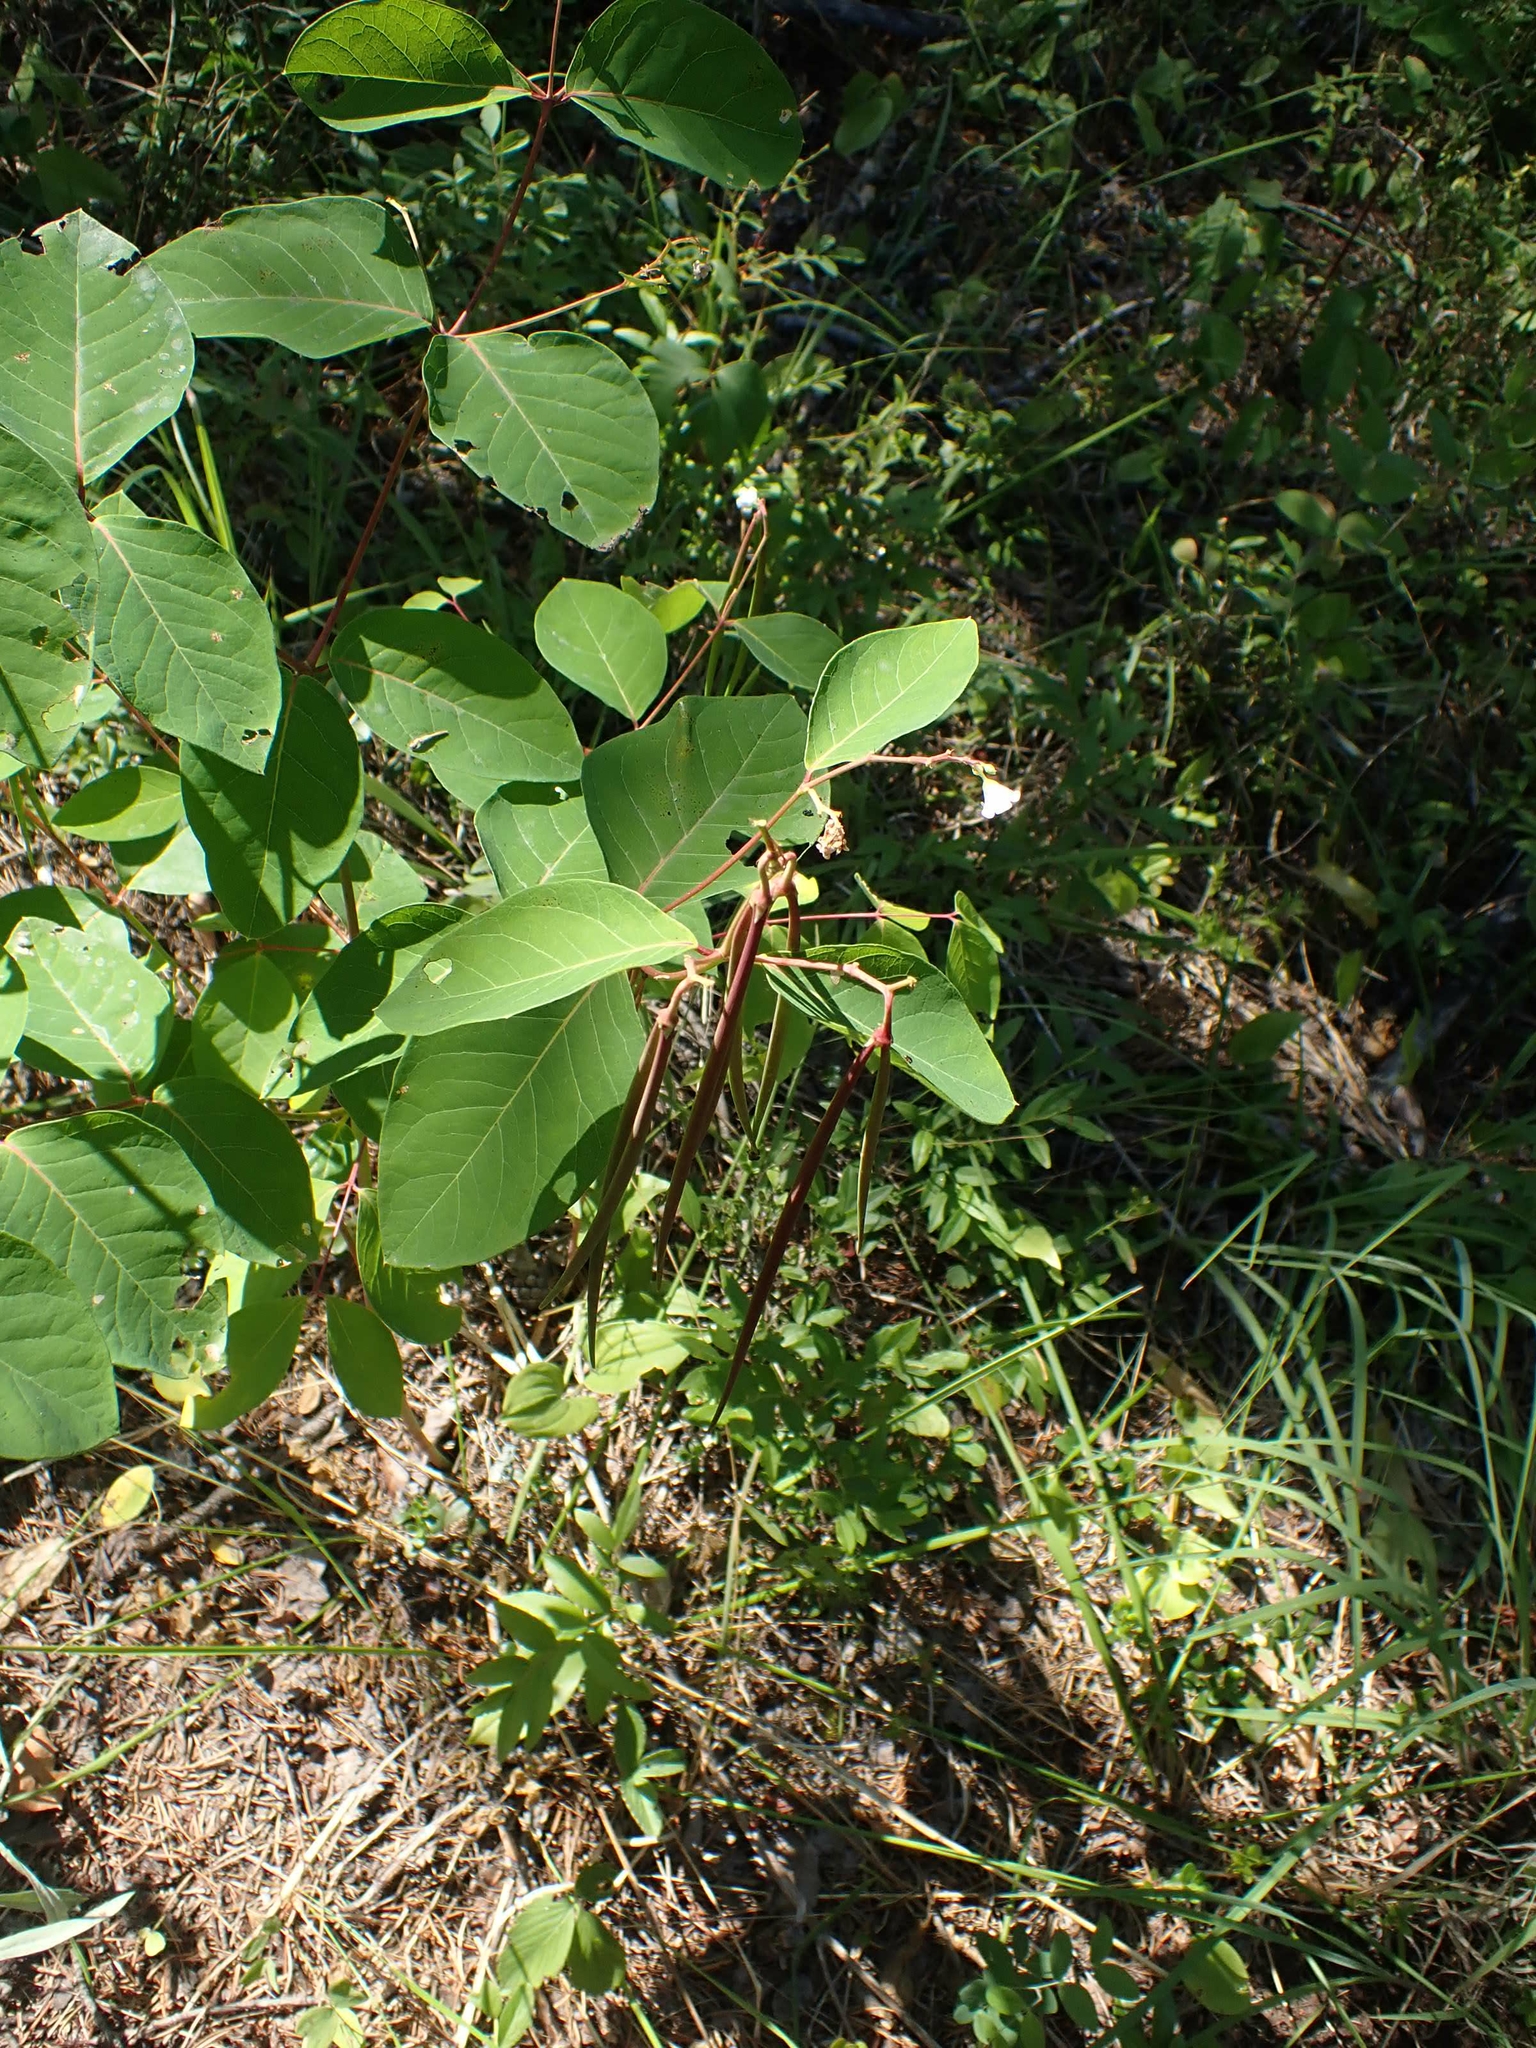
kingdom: Plantae
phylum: Tracheophyta
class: Magnoliopsida
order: Gentianales
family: Apocynaceae
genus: Apocynum
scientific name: Apocynum androsaemifolium
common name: Spreading dogbane
